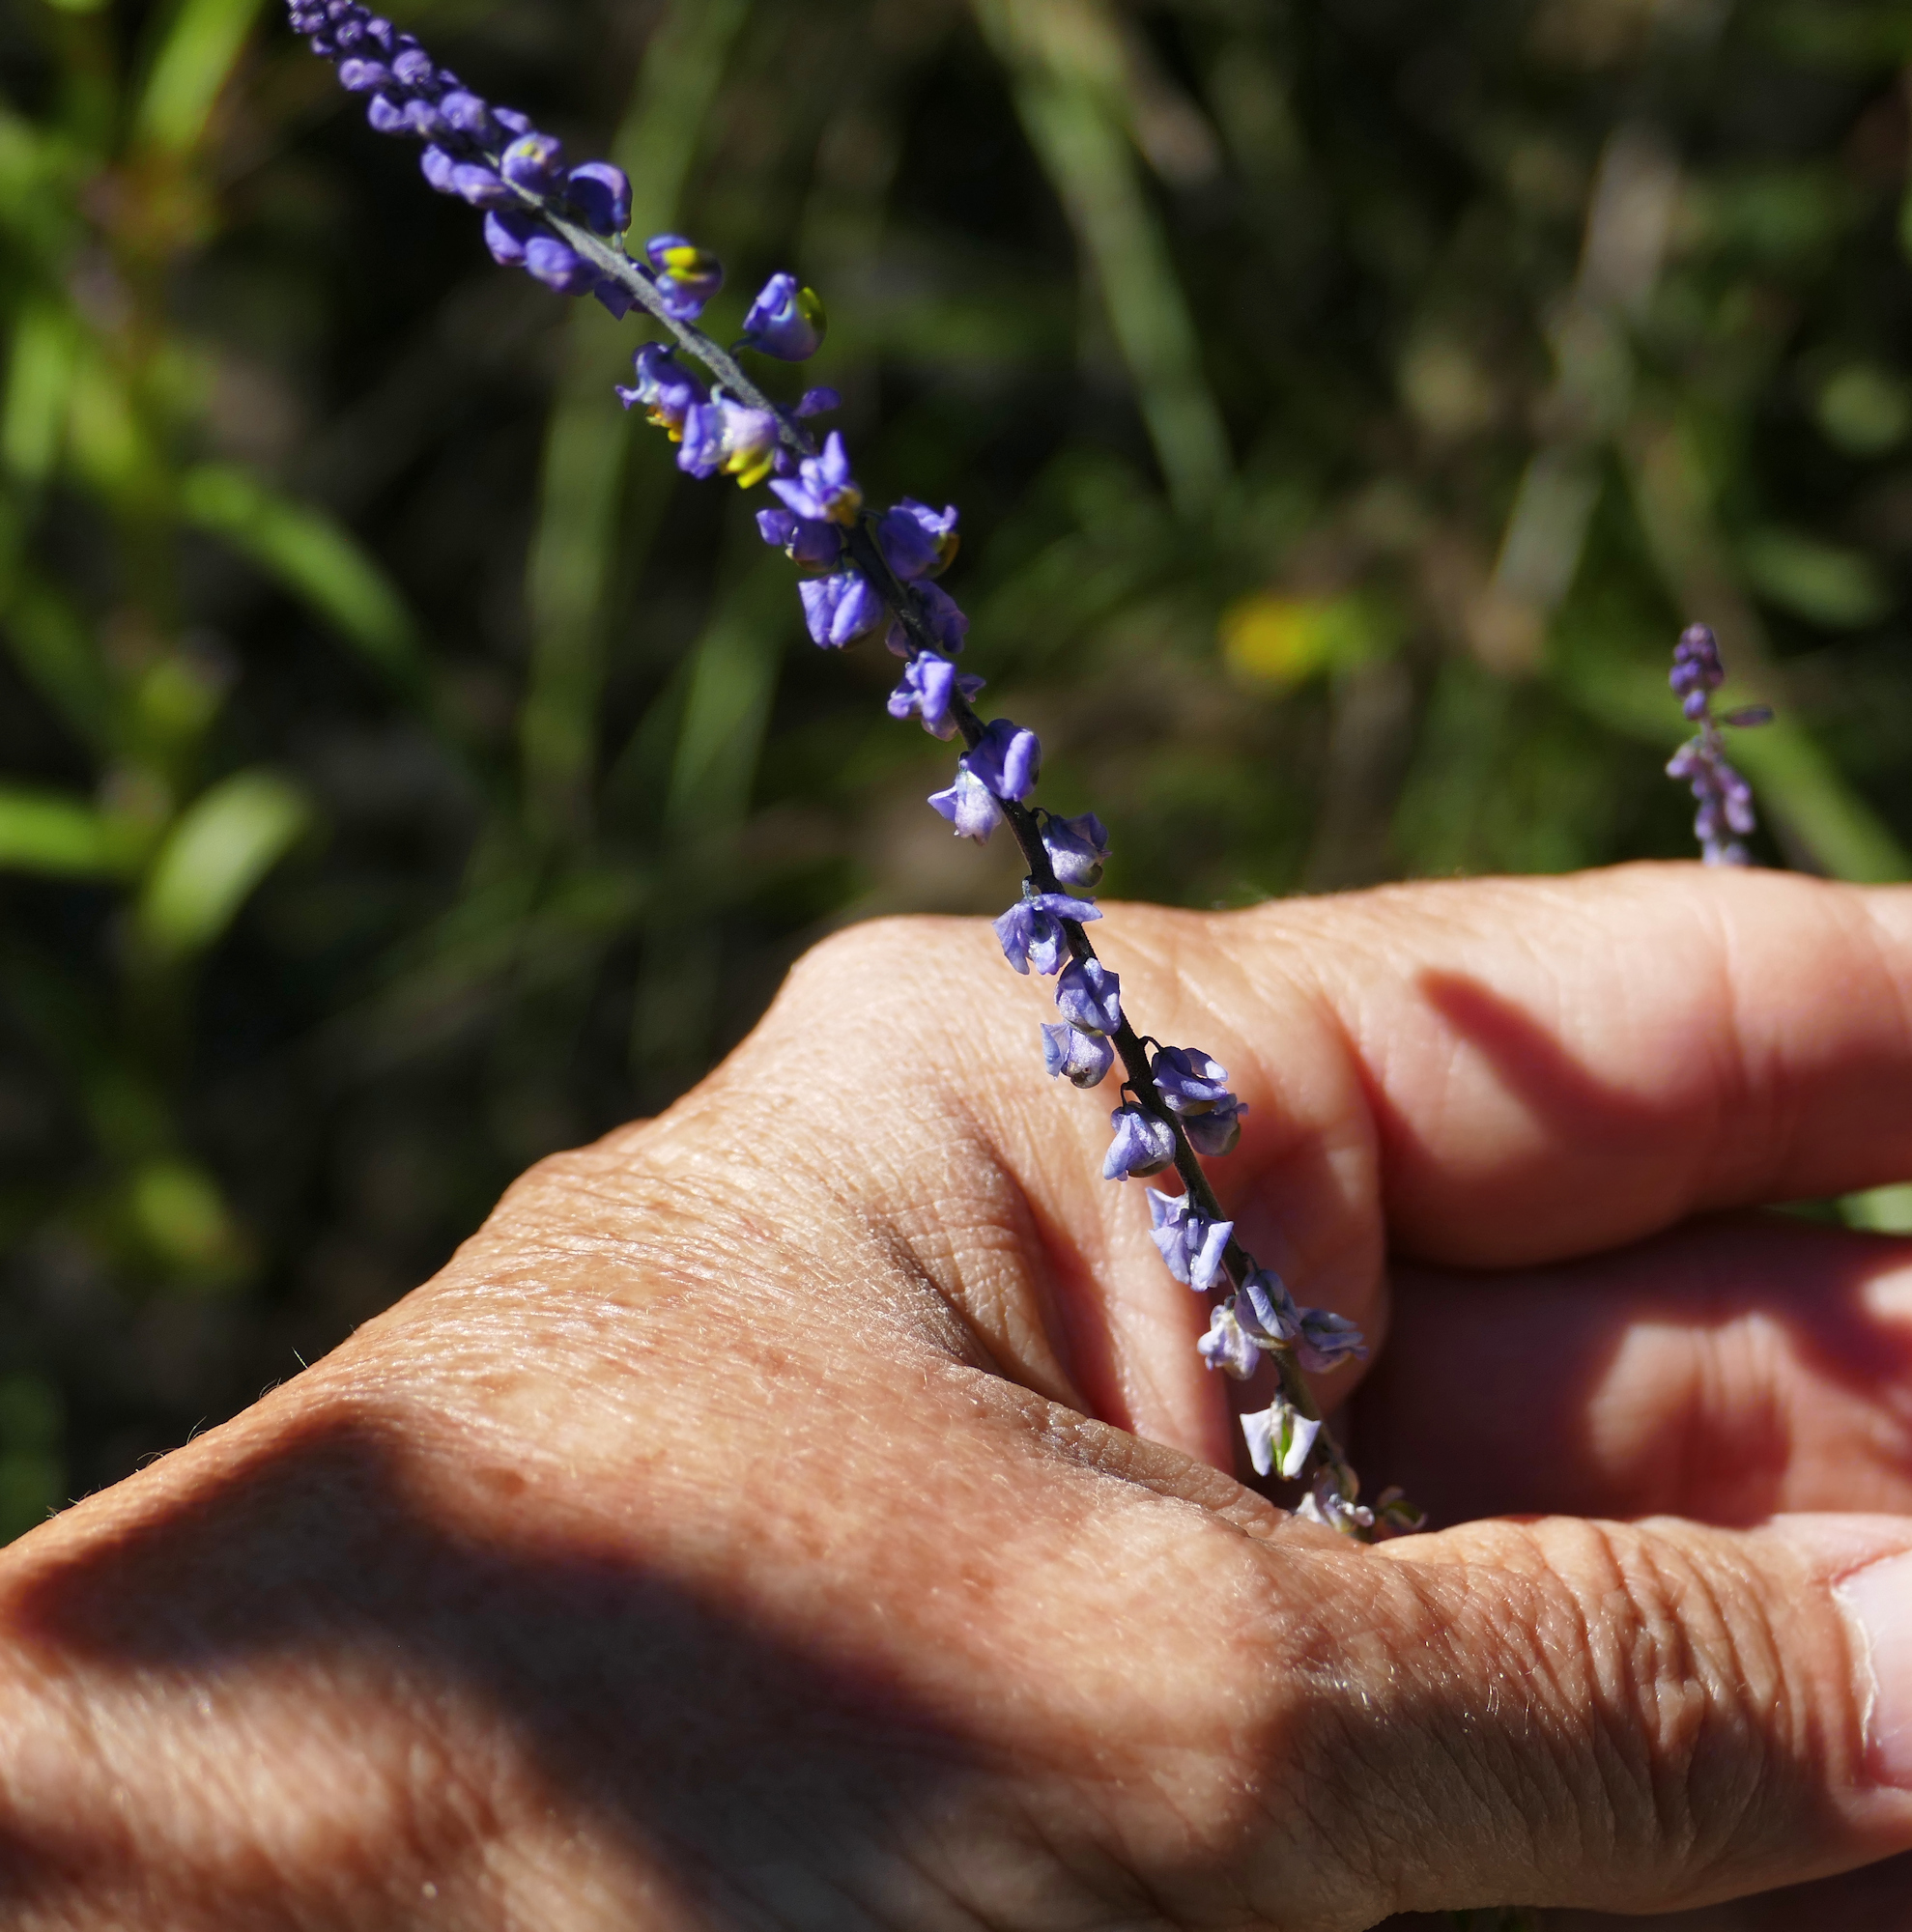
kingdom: Plantae
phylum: Tracheophyta
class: Magnoliopsida
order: Fabales
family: Polygalaceae
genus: Monnina
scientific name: Monnina wrightii
